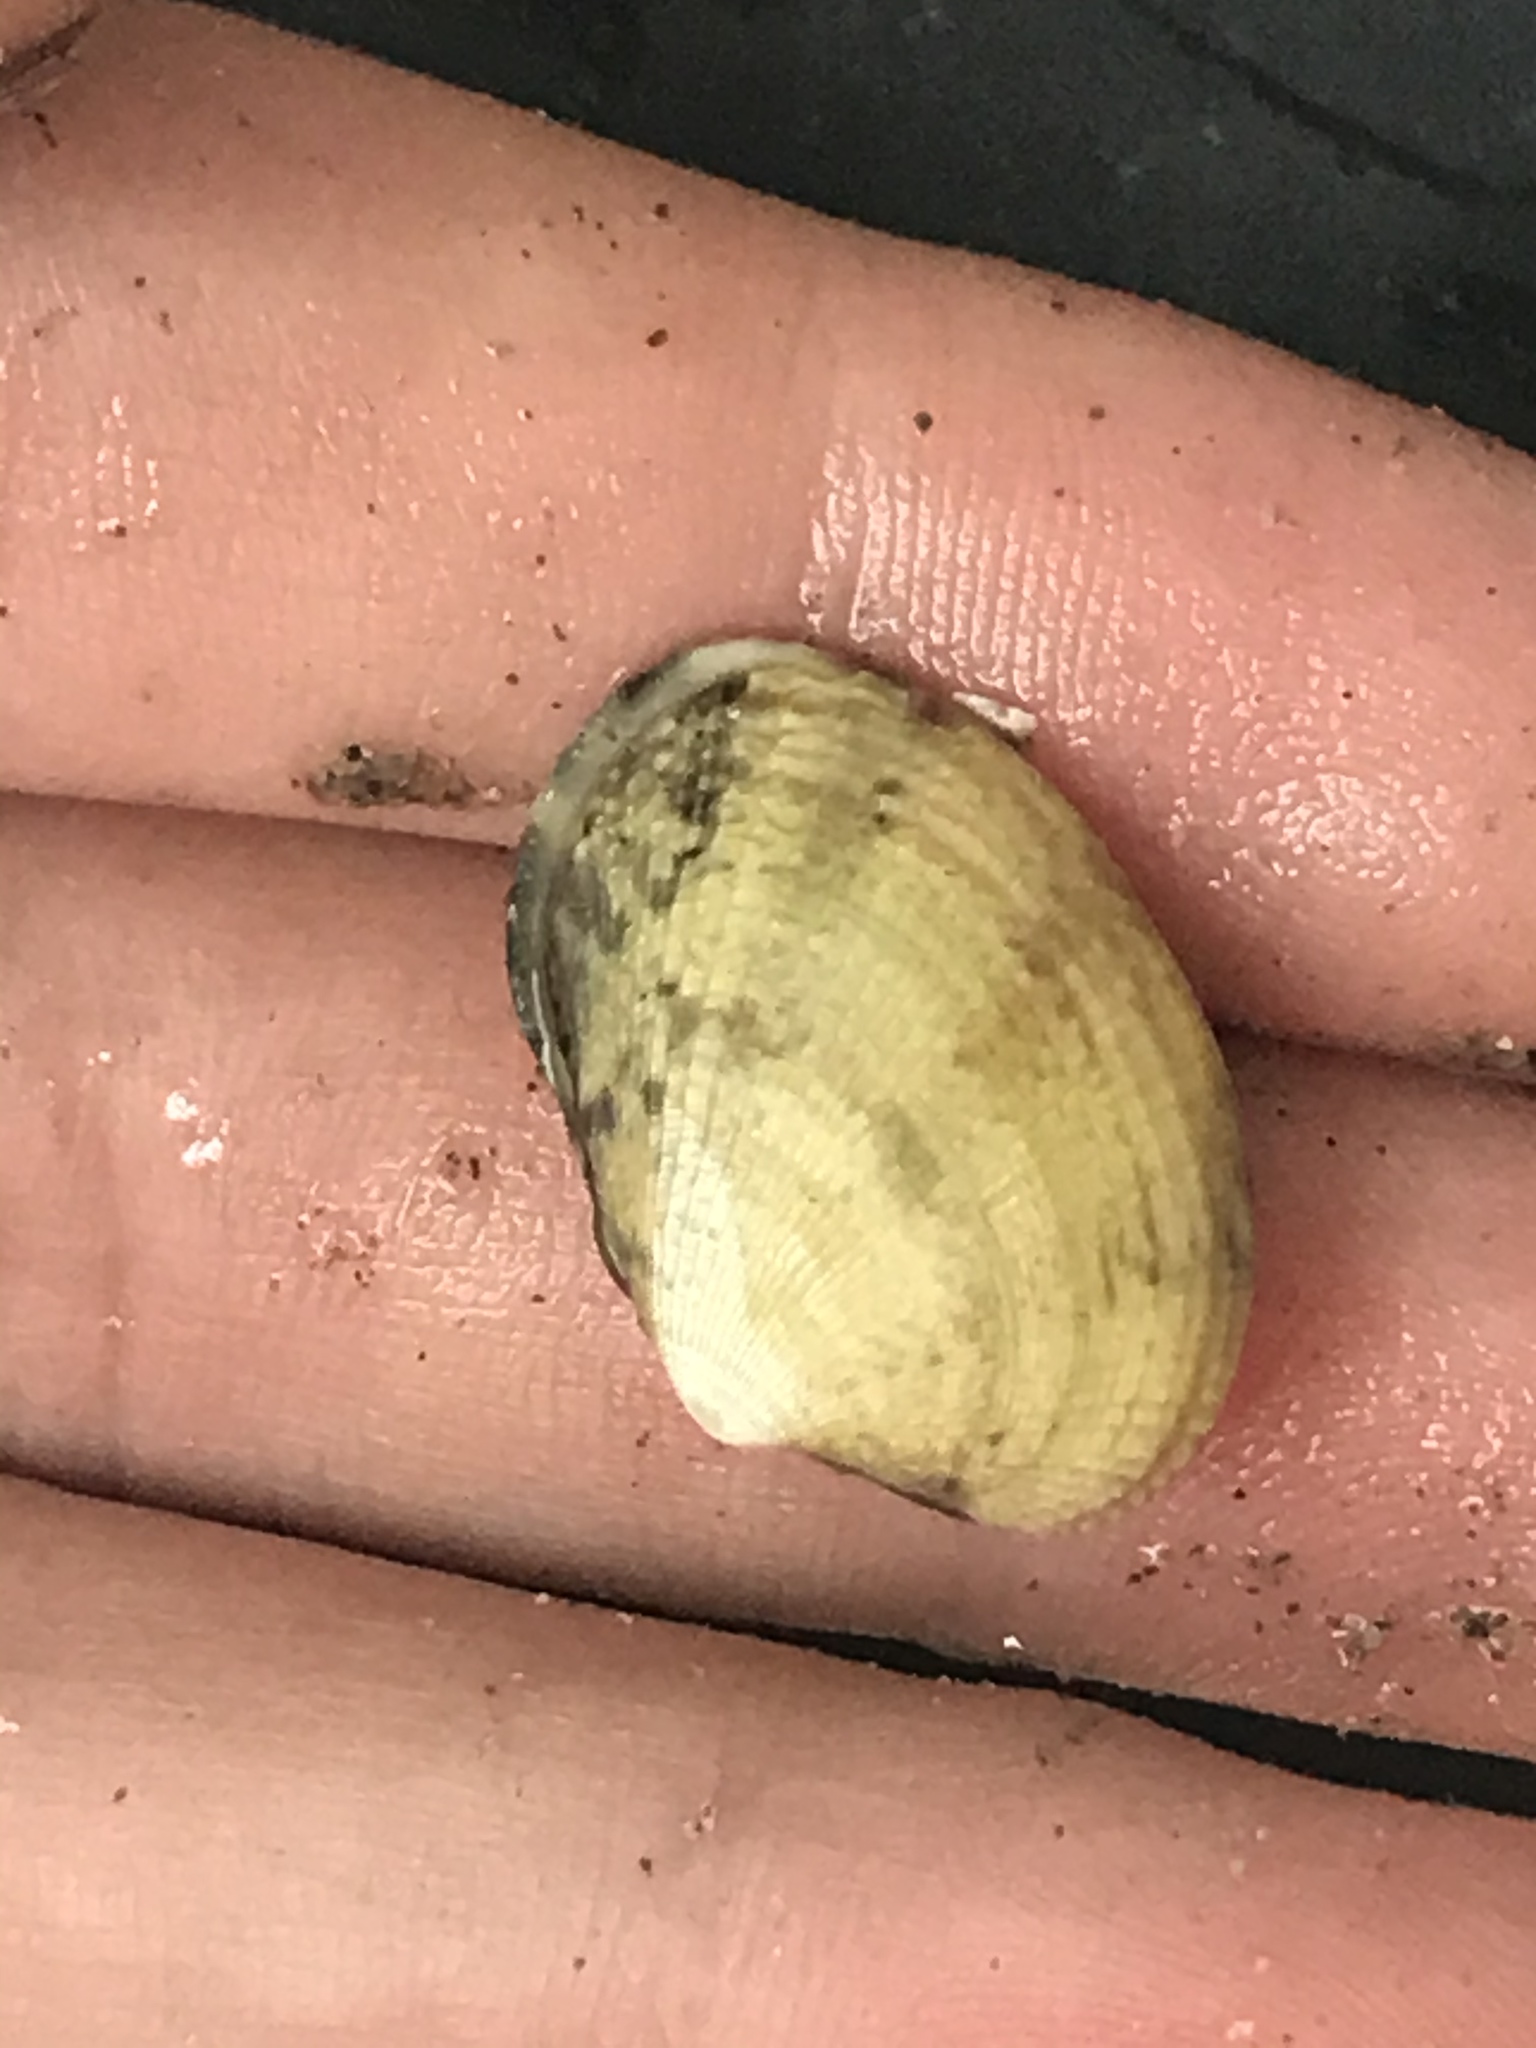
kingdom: Animalia
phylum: Mollusca
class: Bivalvia
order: Venerida
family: Veneridae
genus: Ruditapes
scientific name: Ruditapes philippinarum
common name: Manila clam
